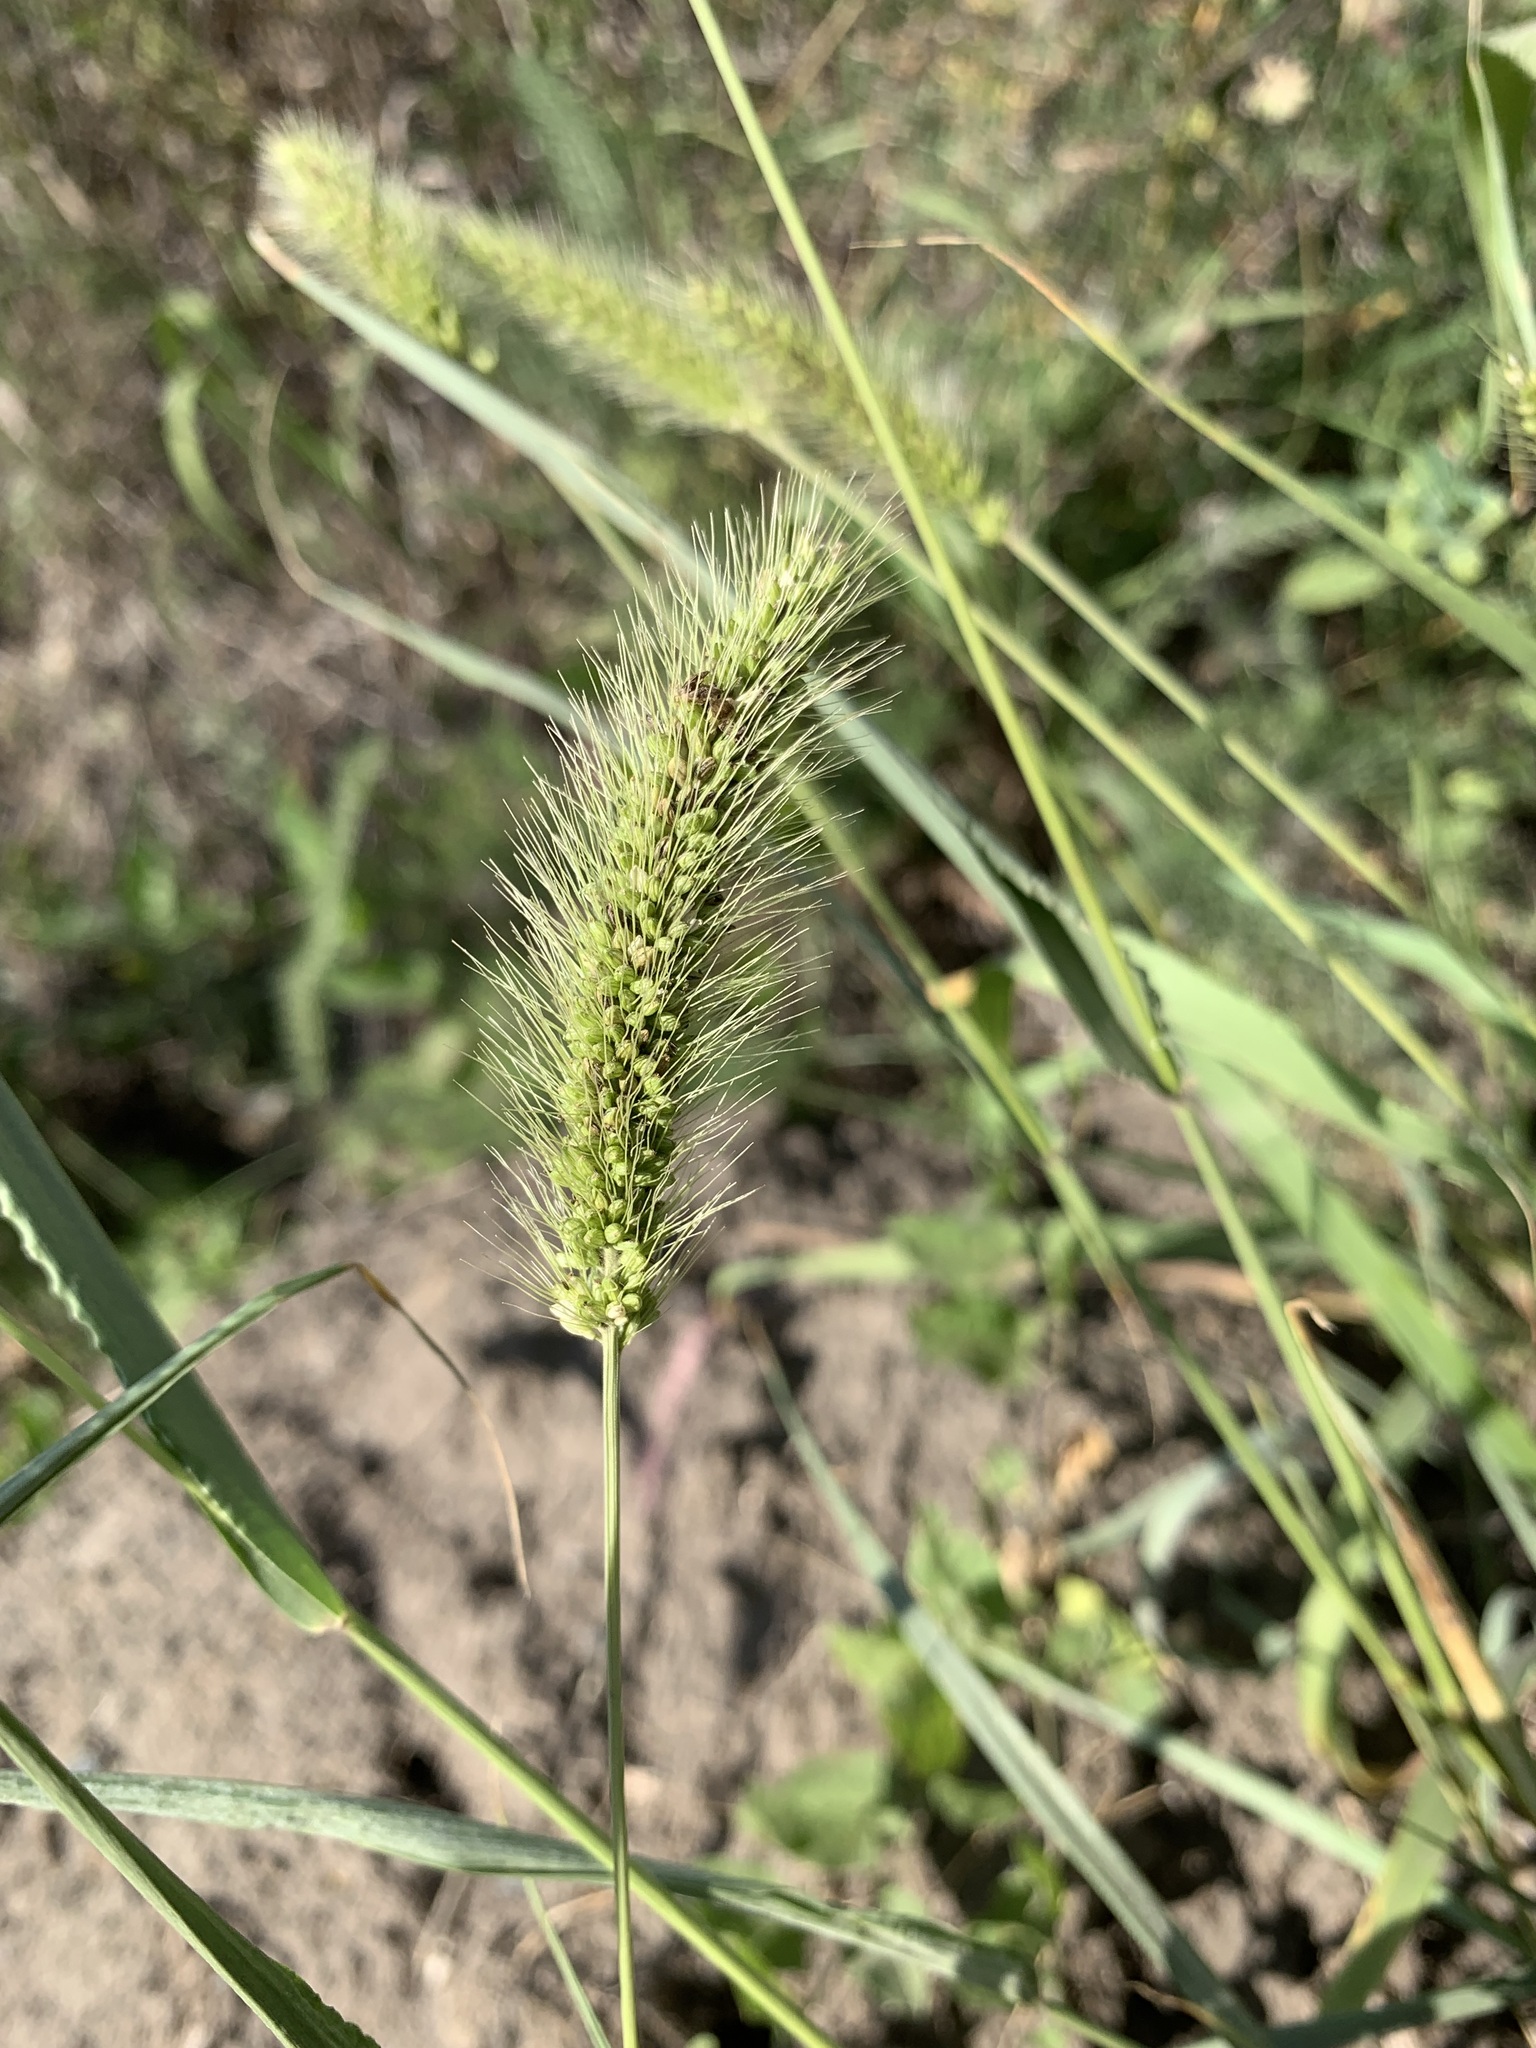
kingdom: Plantae
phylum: Tracheophyta
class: Liliopsida
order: Poales
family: Poaceae
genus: Setaria
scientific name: Setaria viridis
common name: Green bristlegrass
